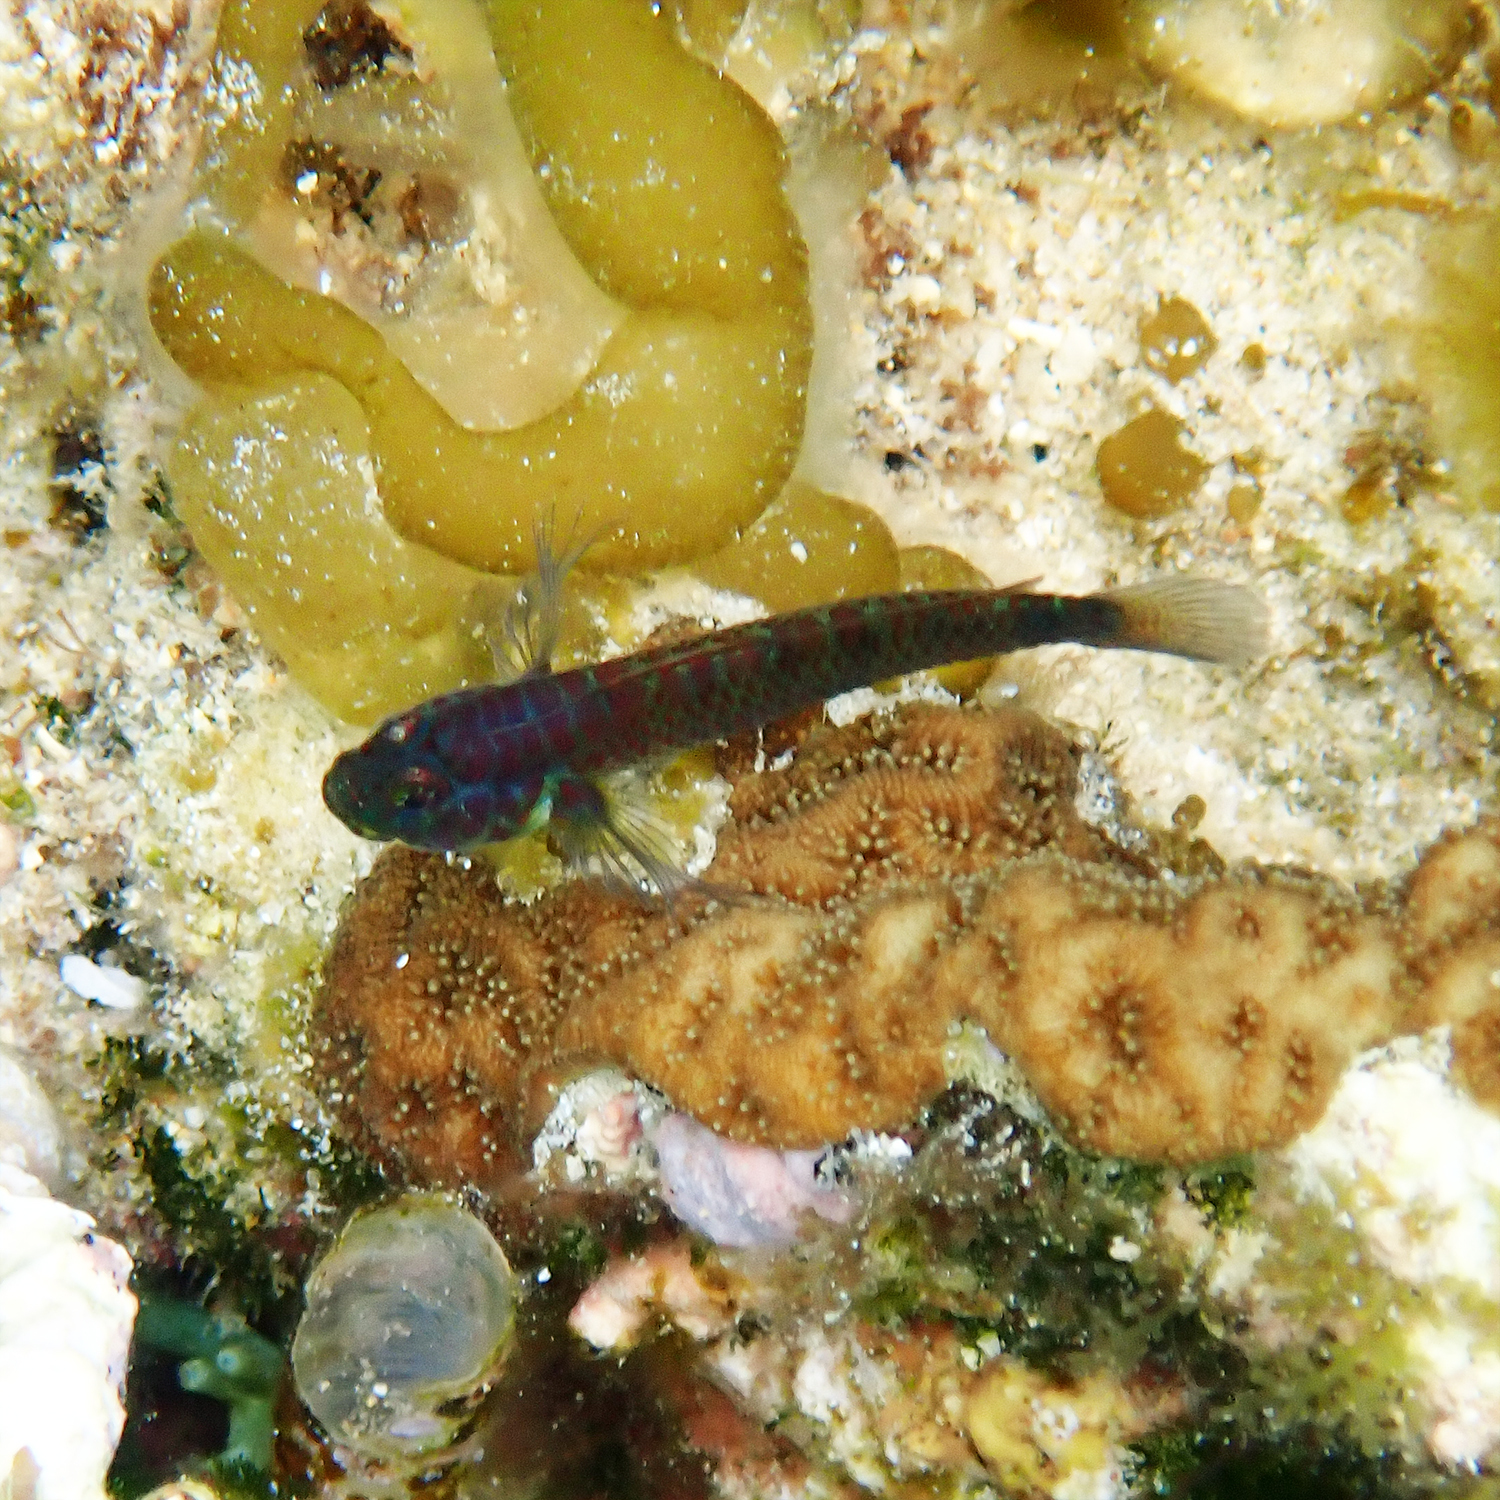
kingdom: Animalia
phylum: Chordata
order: Perciformes
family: Gobiidae
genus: Eviota
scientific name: Eviota hoesei
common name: Doug's eviota
